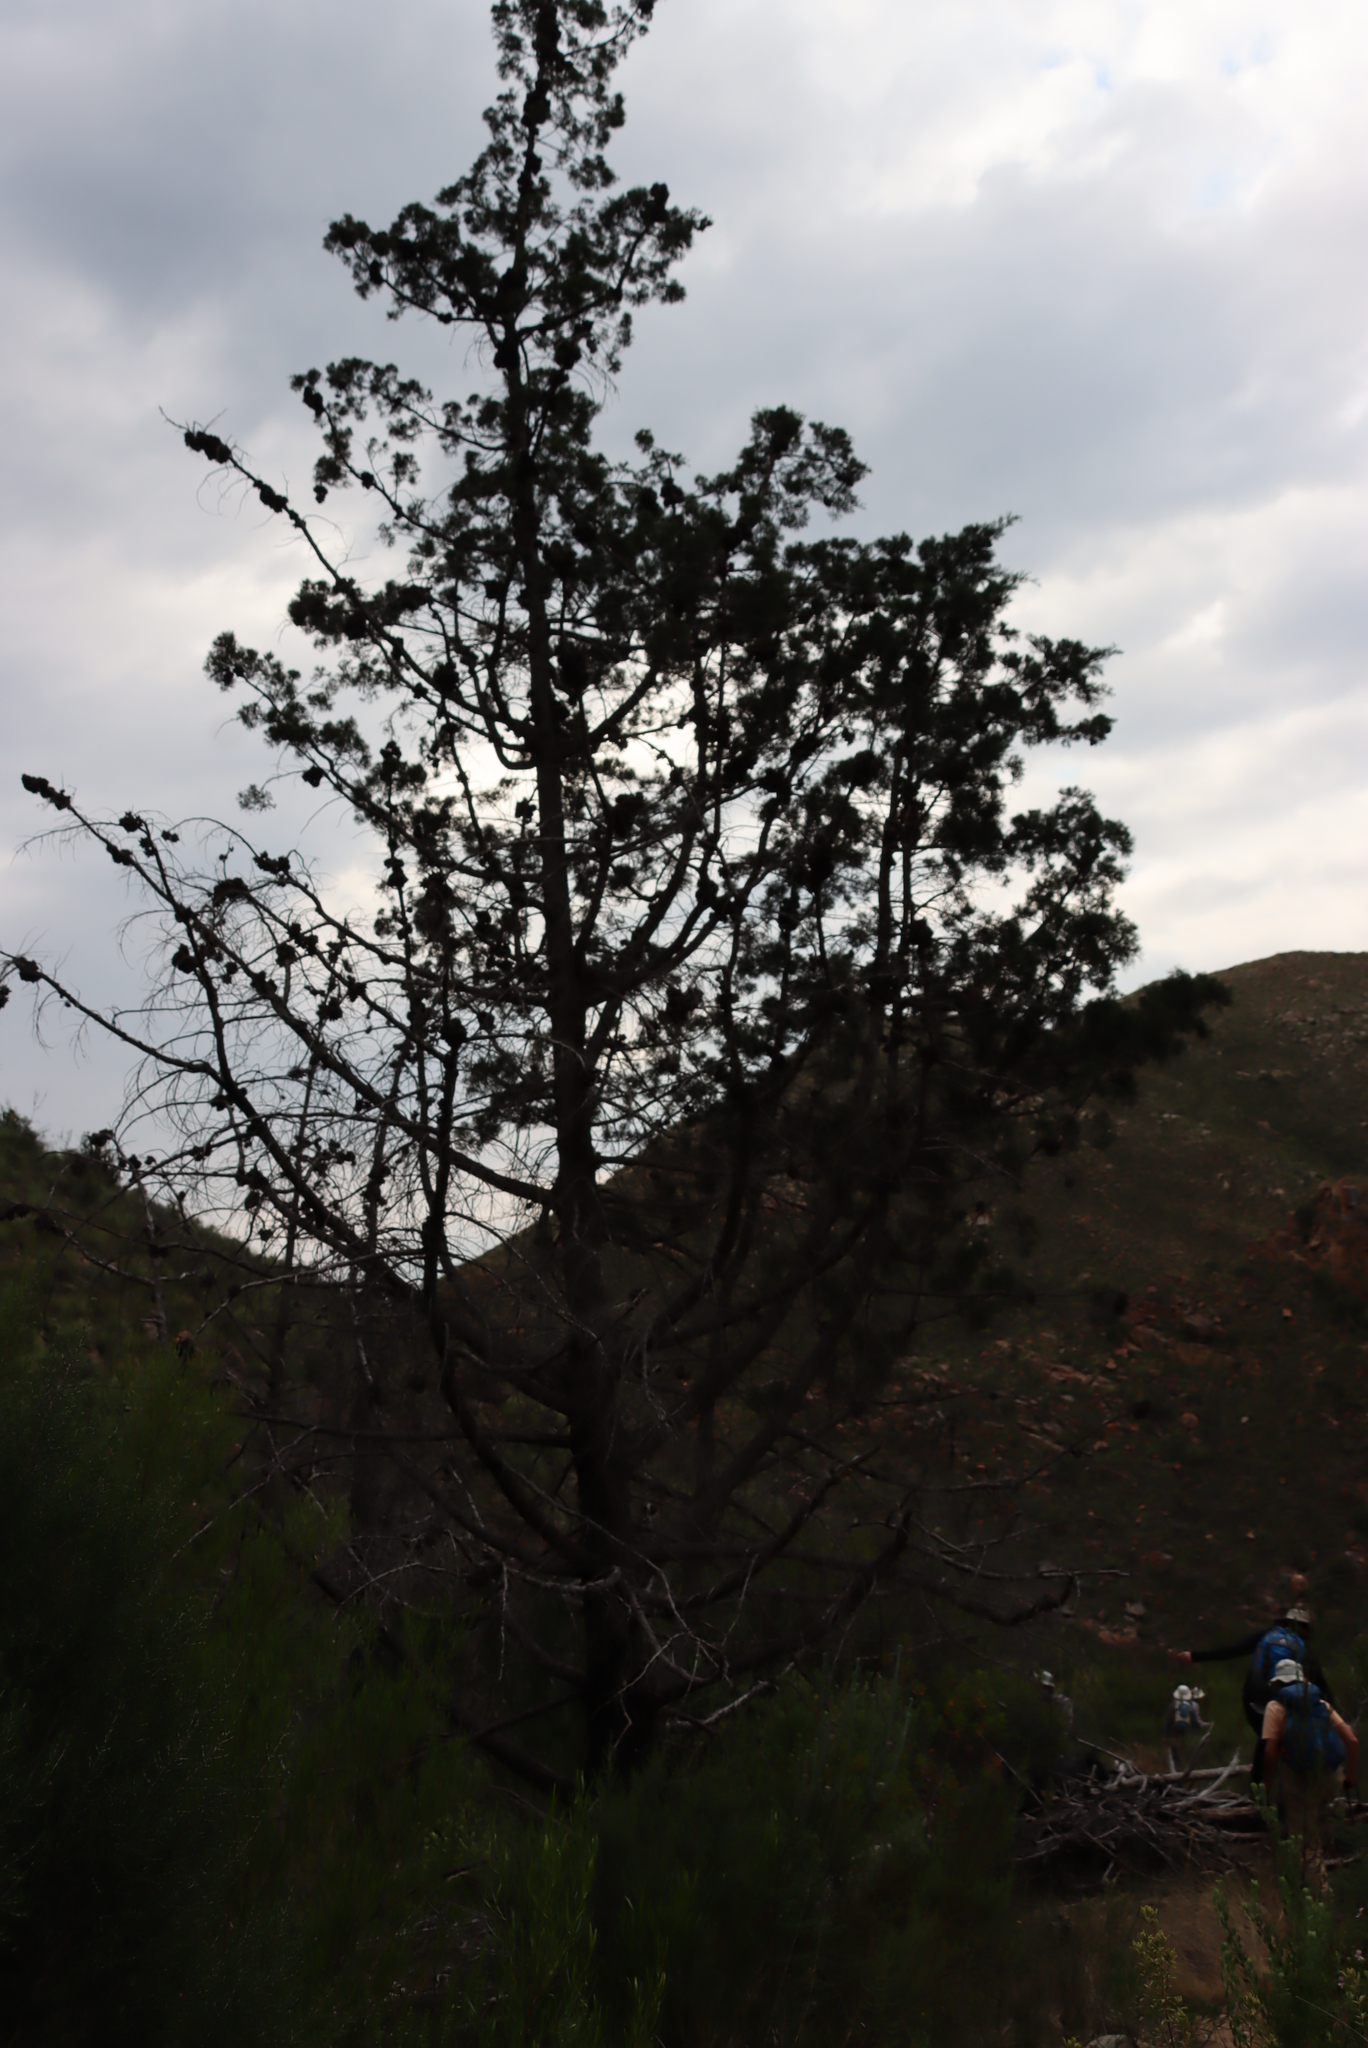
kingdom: Plantae
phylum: Tracheophyta
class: Pinopsida
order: Pinales
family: Cupressaceae
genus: Widdringtonia
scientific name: Widdringtonia schwarzii
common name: Baviaans cedar
